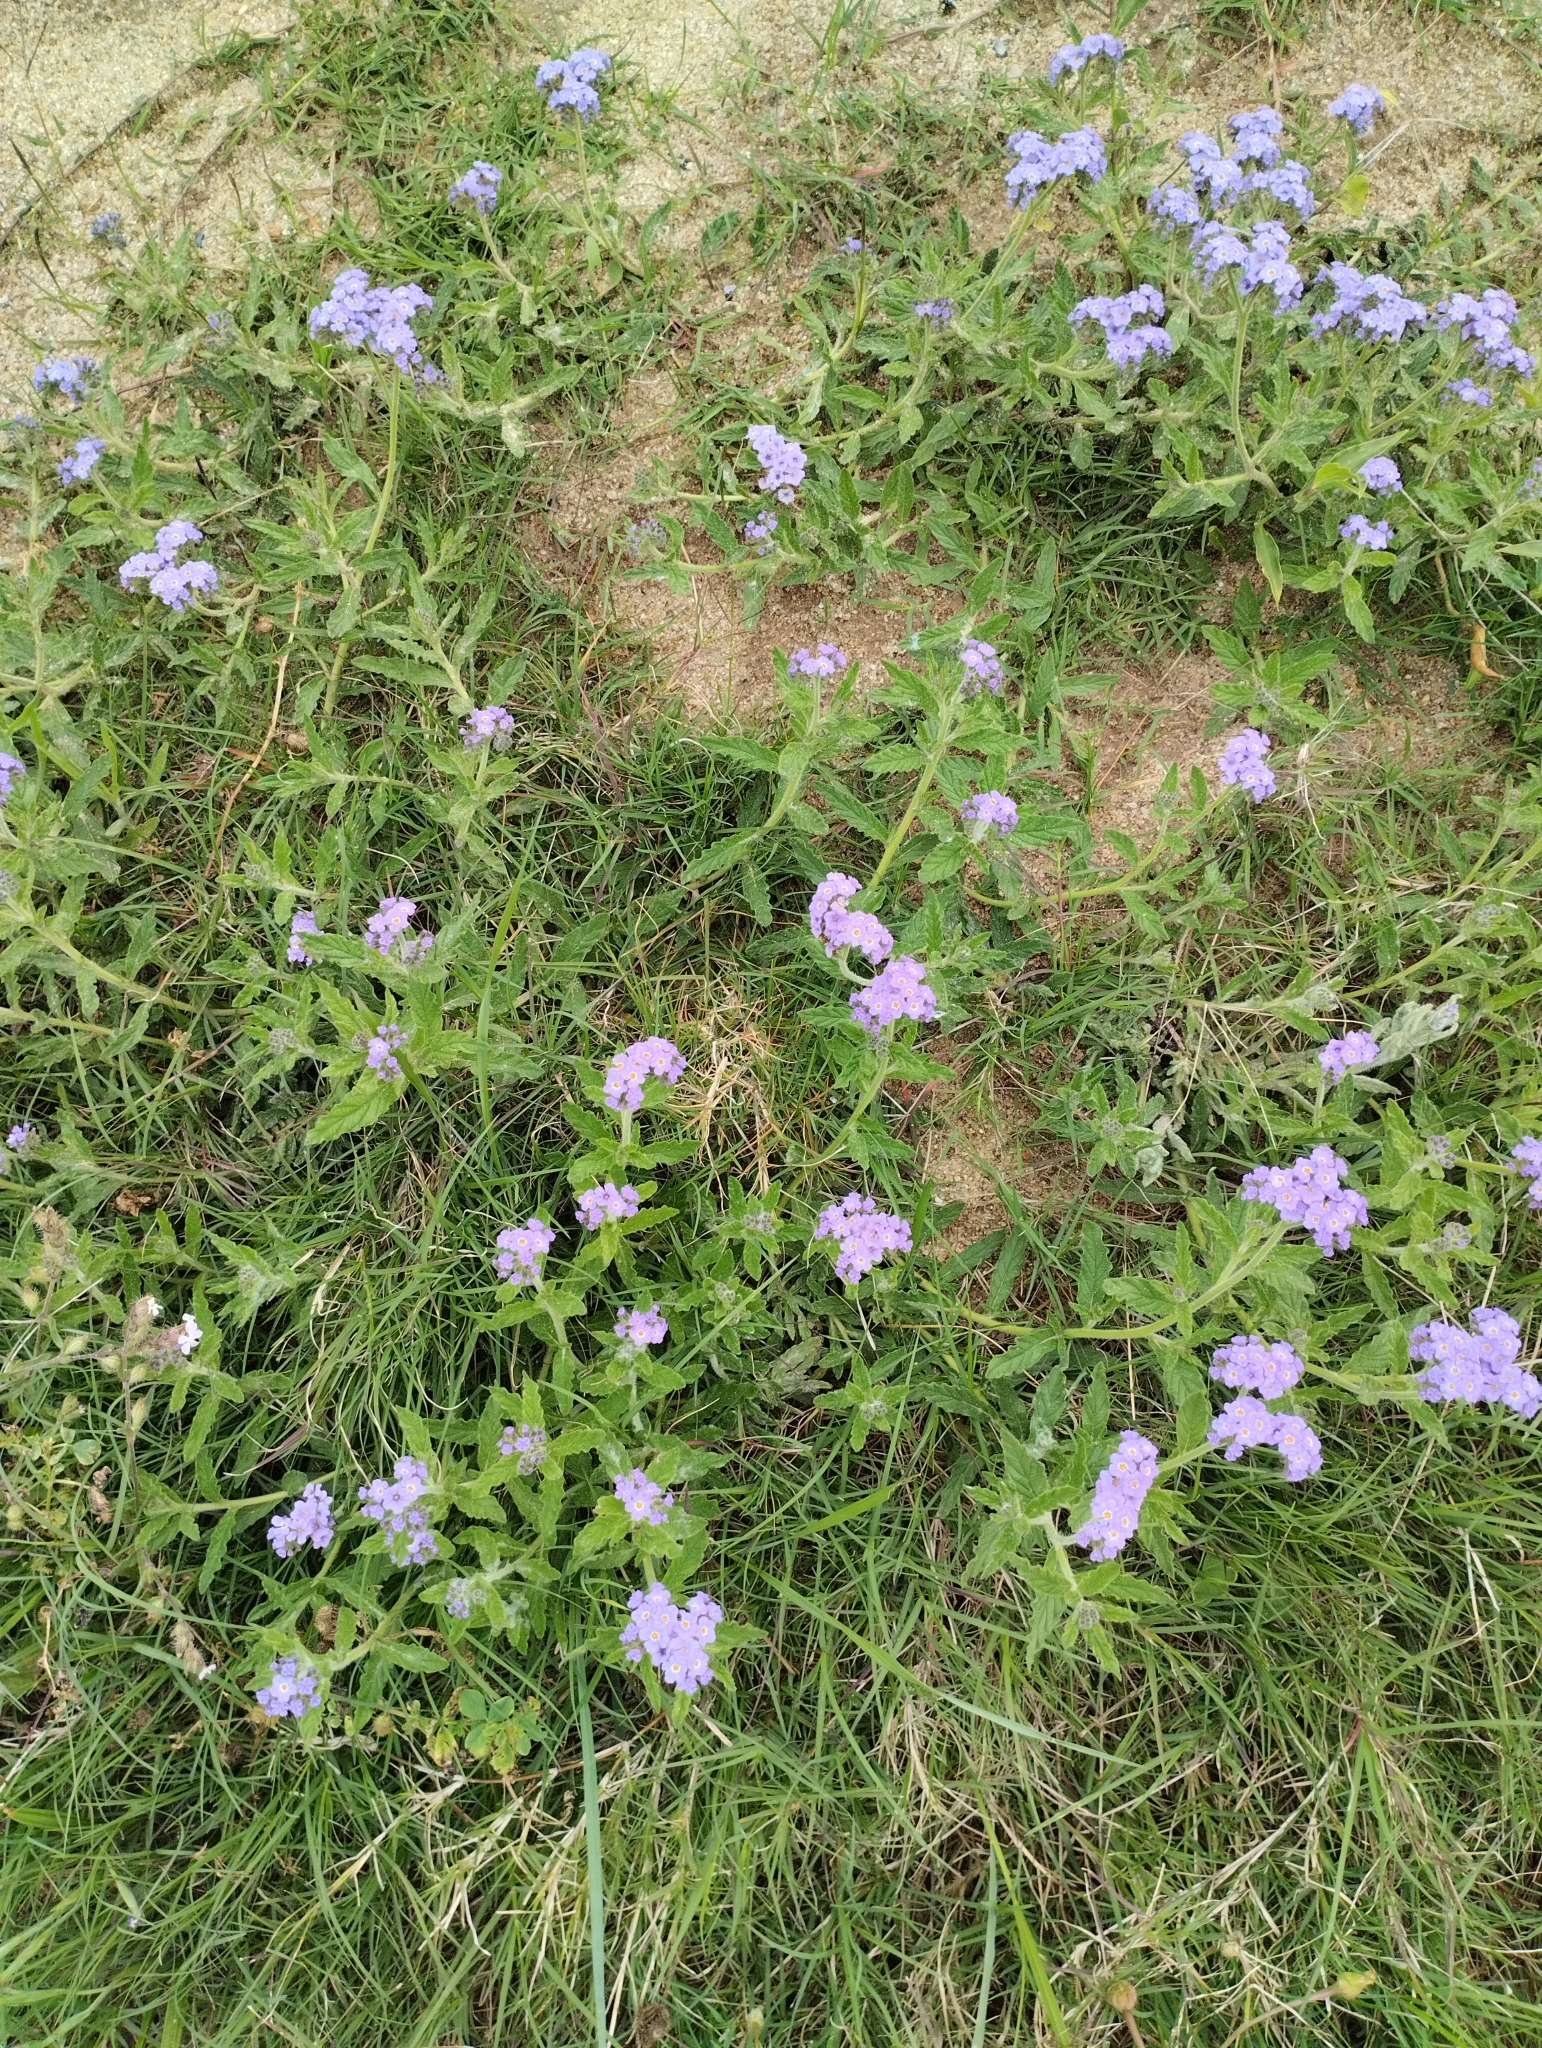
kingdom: Plantae
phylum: Tracheophyta
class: Magnoliopsida
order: Boraginales
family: Heliotropiaceae
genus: Heliotropium
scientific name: Heliotropium amplexicaule
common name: Clasping heliotrope
